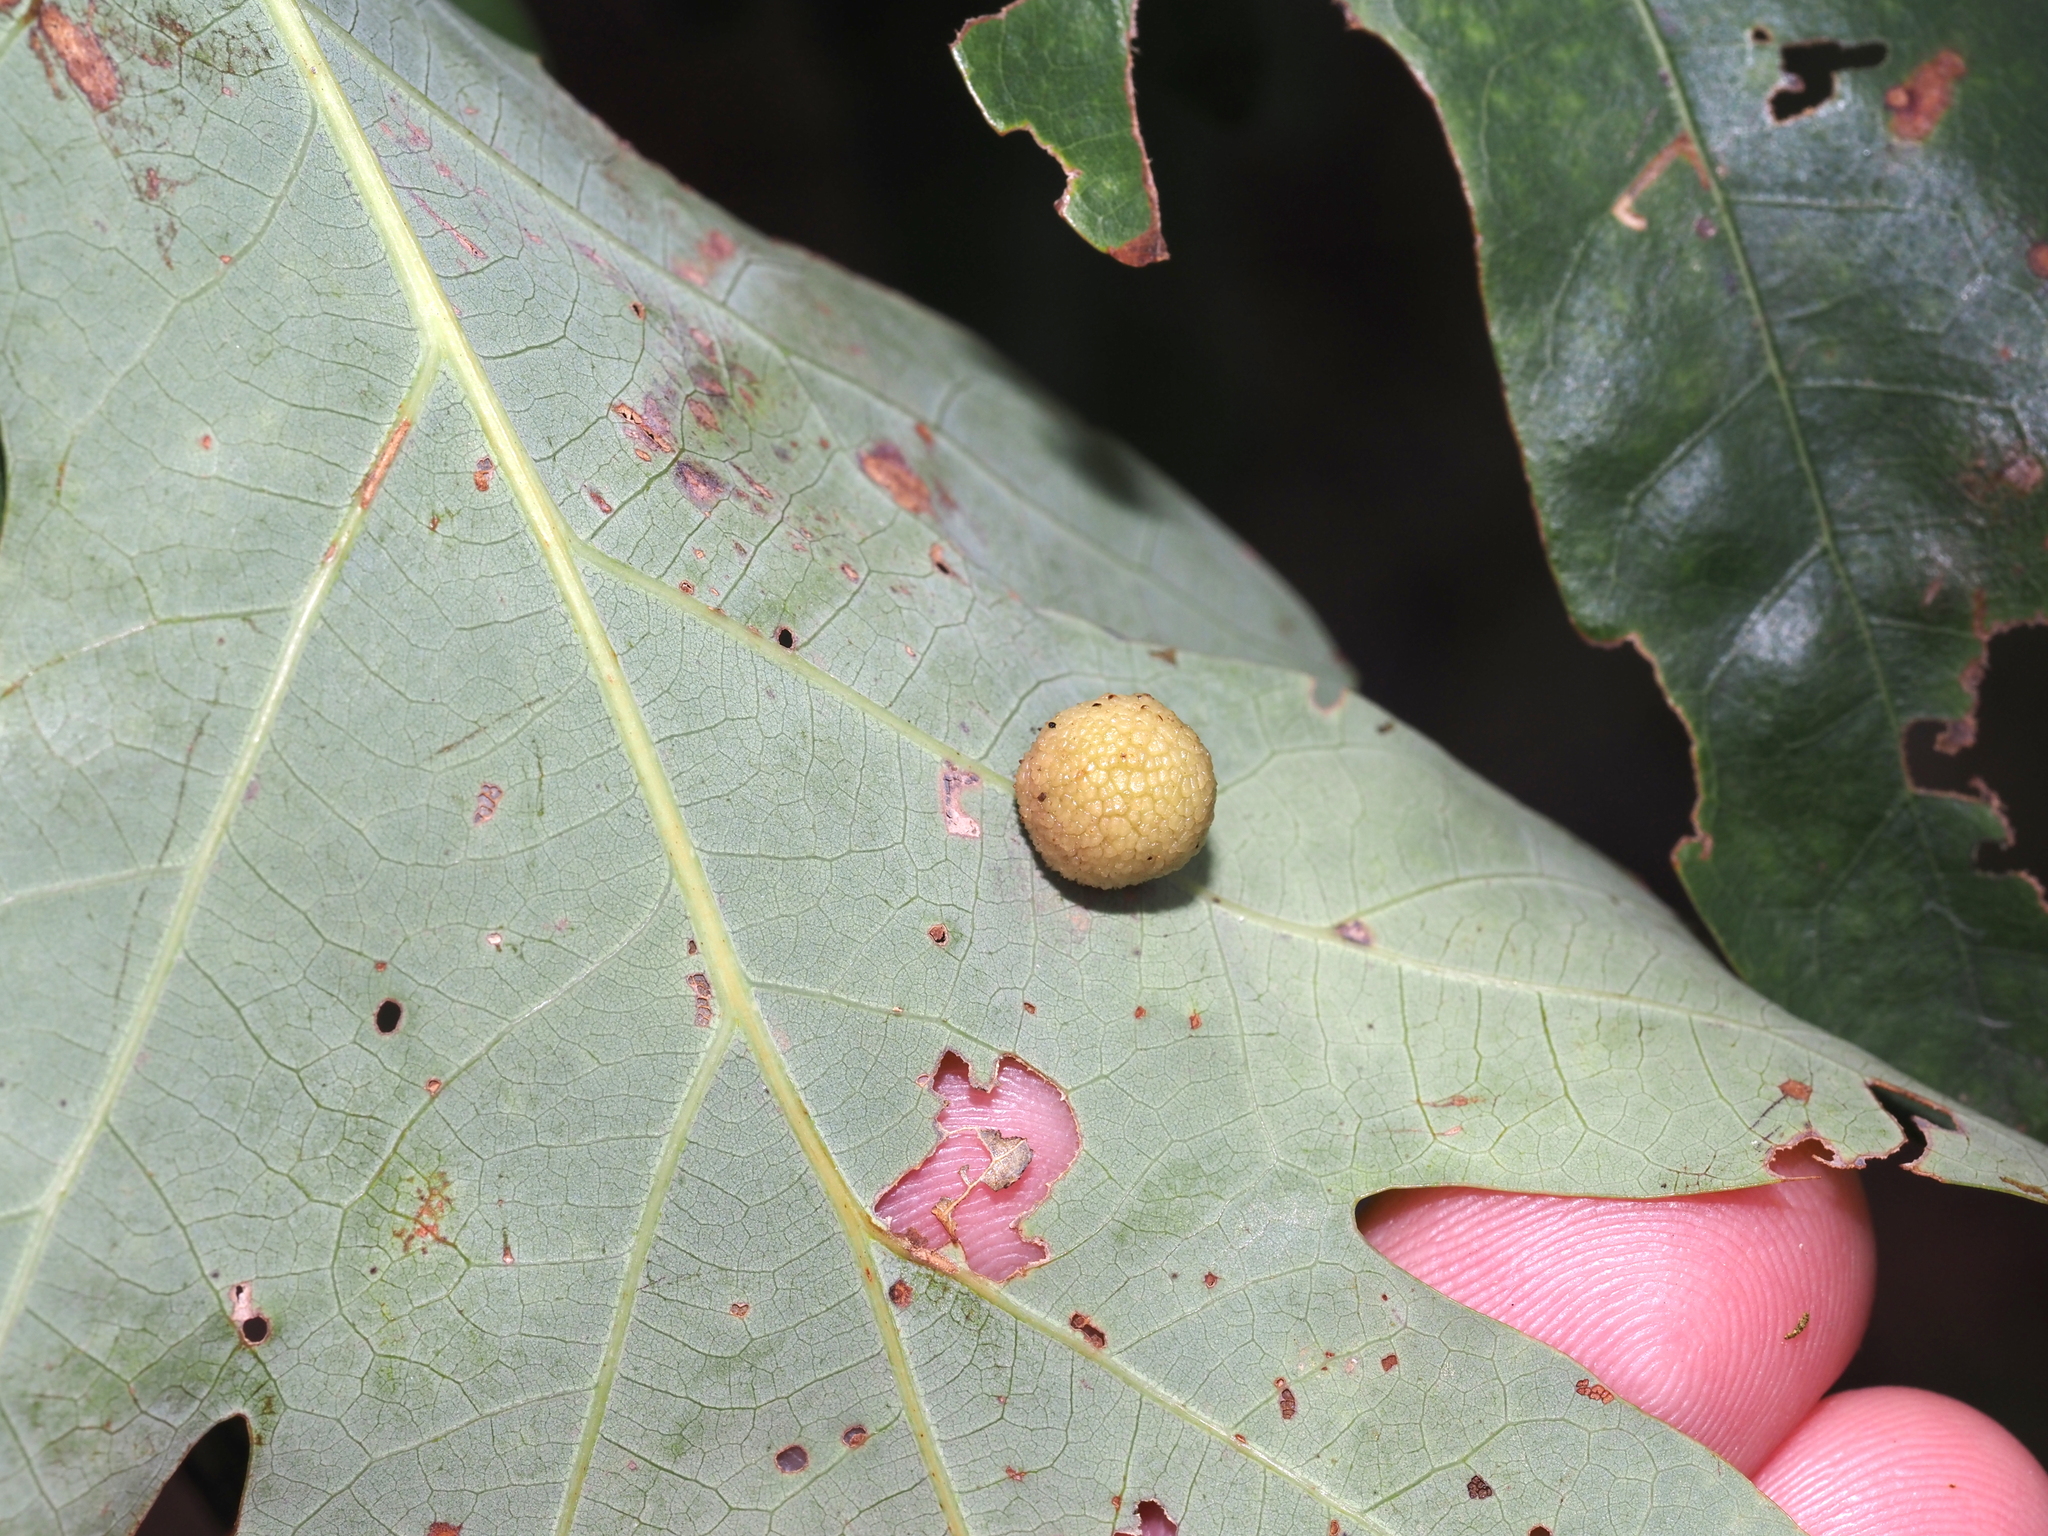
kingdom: Animalia
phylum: Arthropoda
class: Insecta
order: Hymenoptera
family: Cynipidae
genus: Acraspis
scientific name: Acraspis
